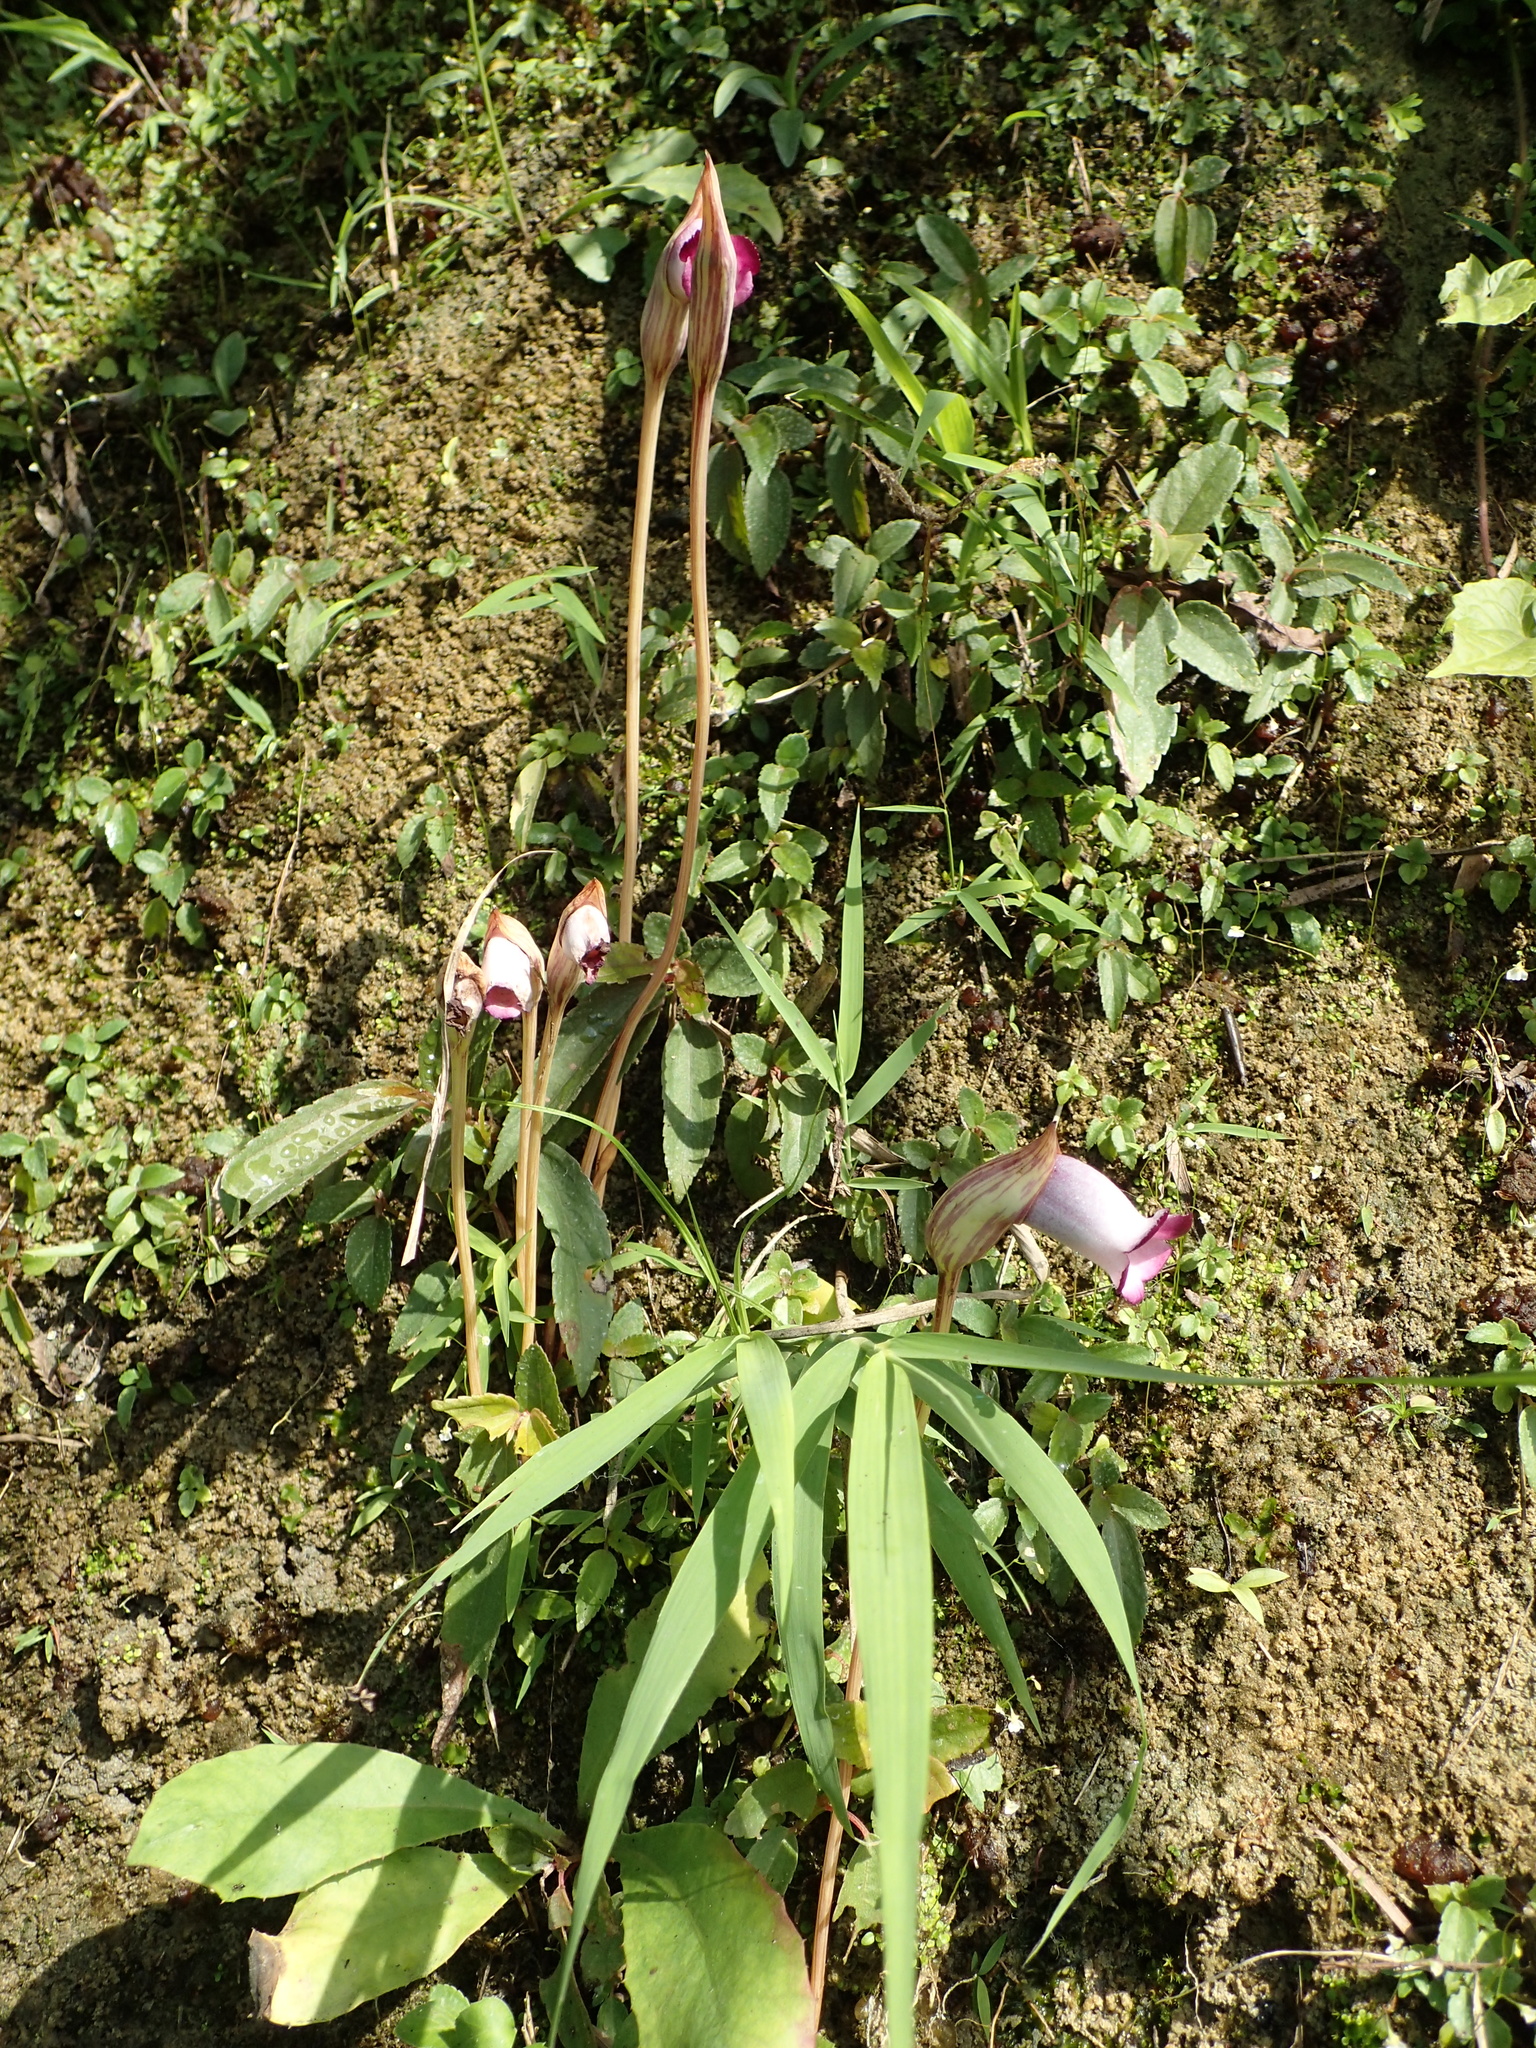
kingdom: Plantae
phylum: Tracheophyta
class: Magnoliopsida
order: Lamiales
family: Orobanchaceae
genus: Aeginetia
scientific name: Aeginetia indica
